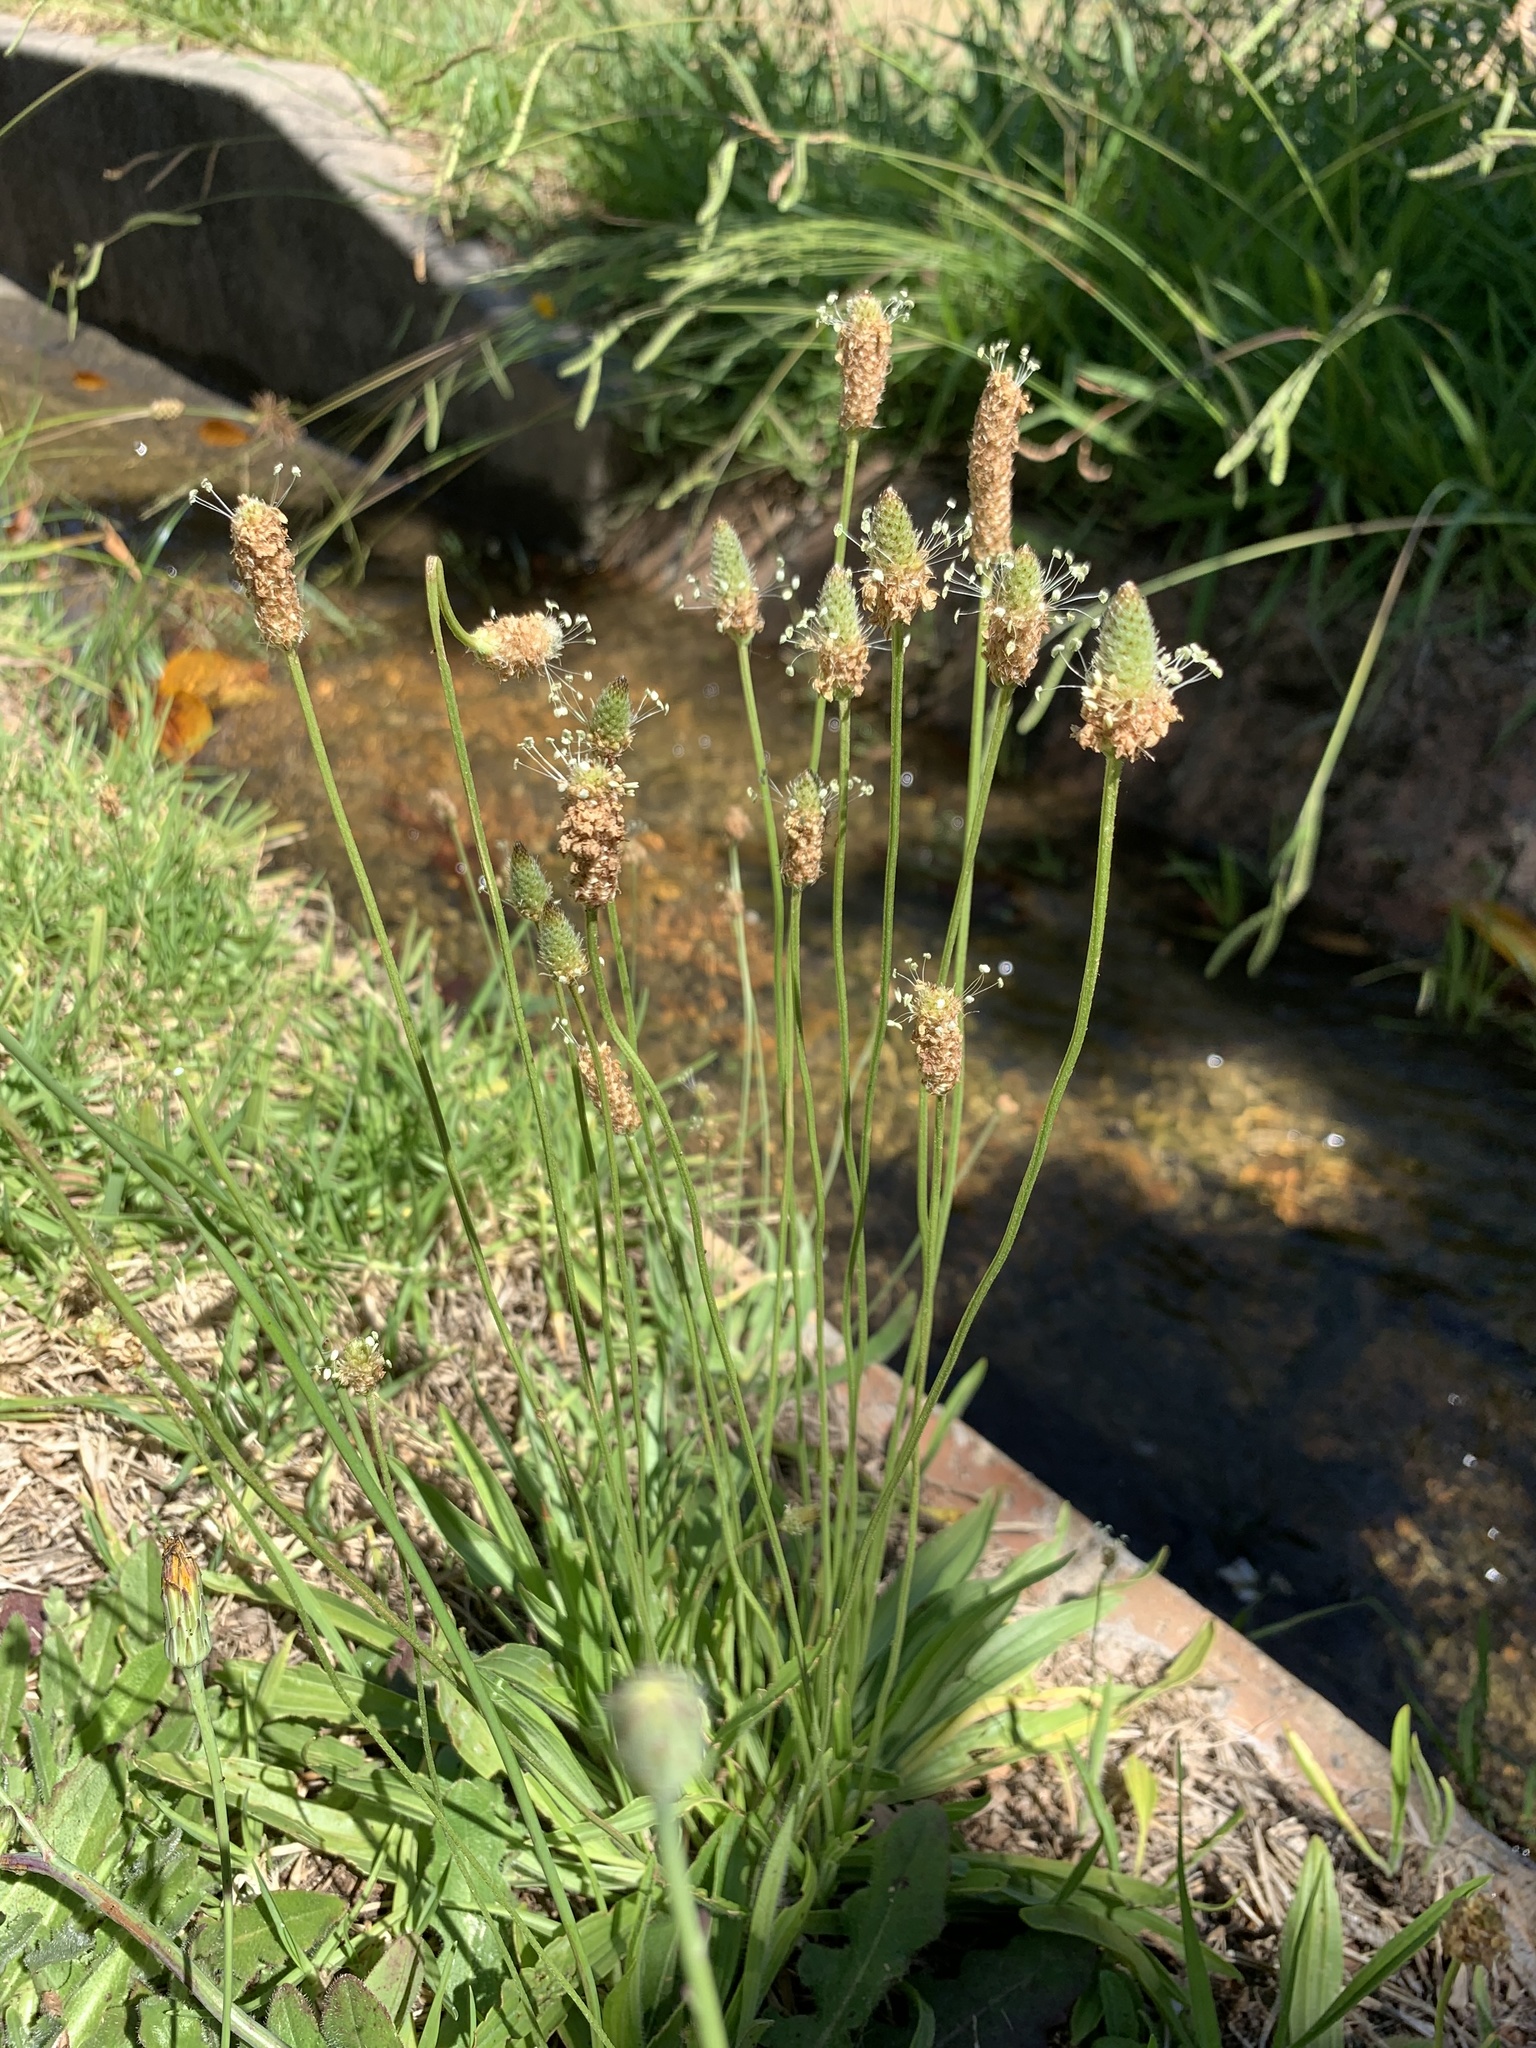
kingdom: Plantae
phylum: Tracheophyta
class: Magnoliopsida
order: Lamiales
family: Plantaginaceae
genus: Plantago
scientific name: Plantago lanceolata
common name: Ribwort plantain
